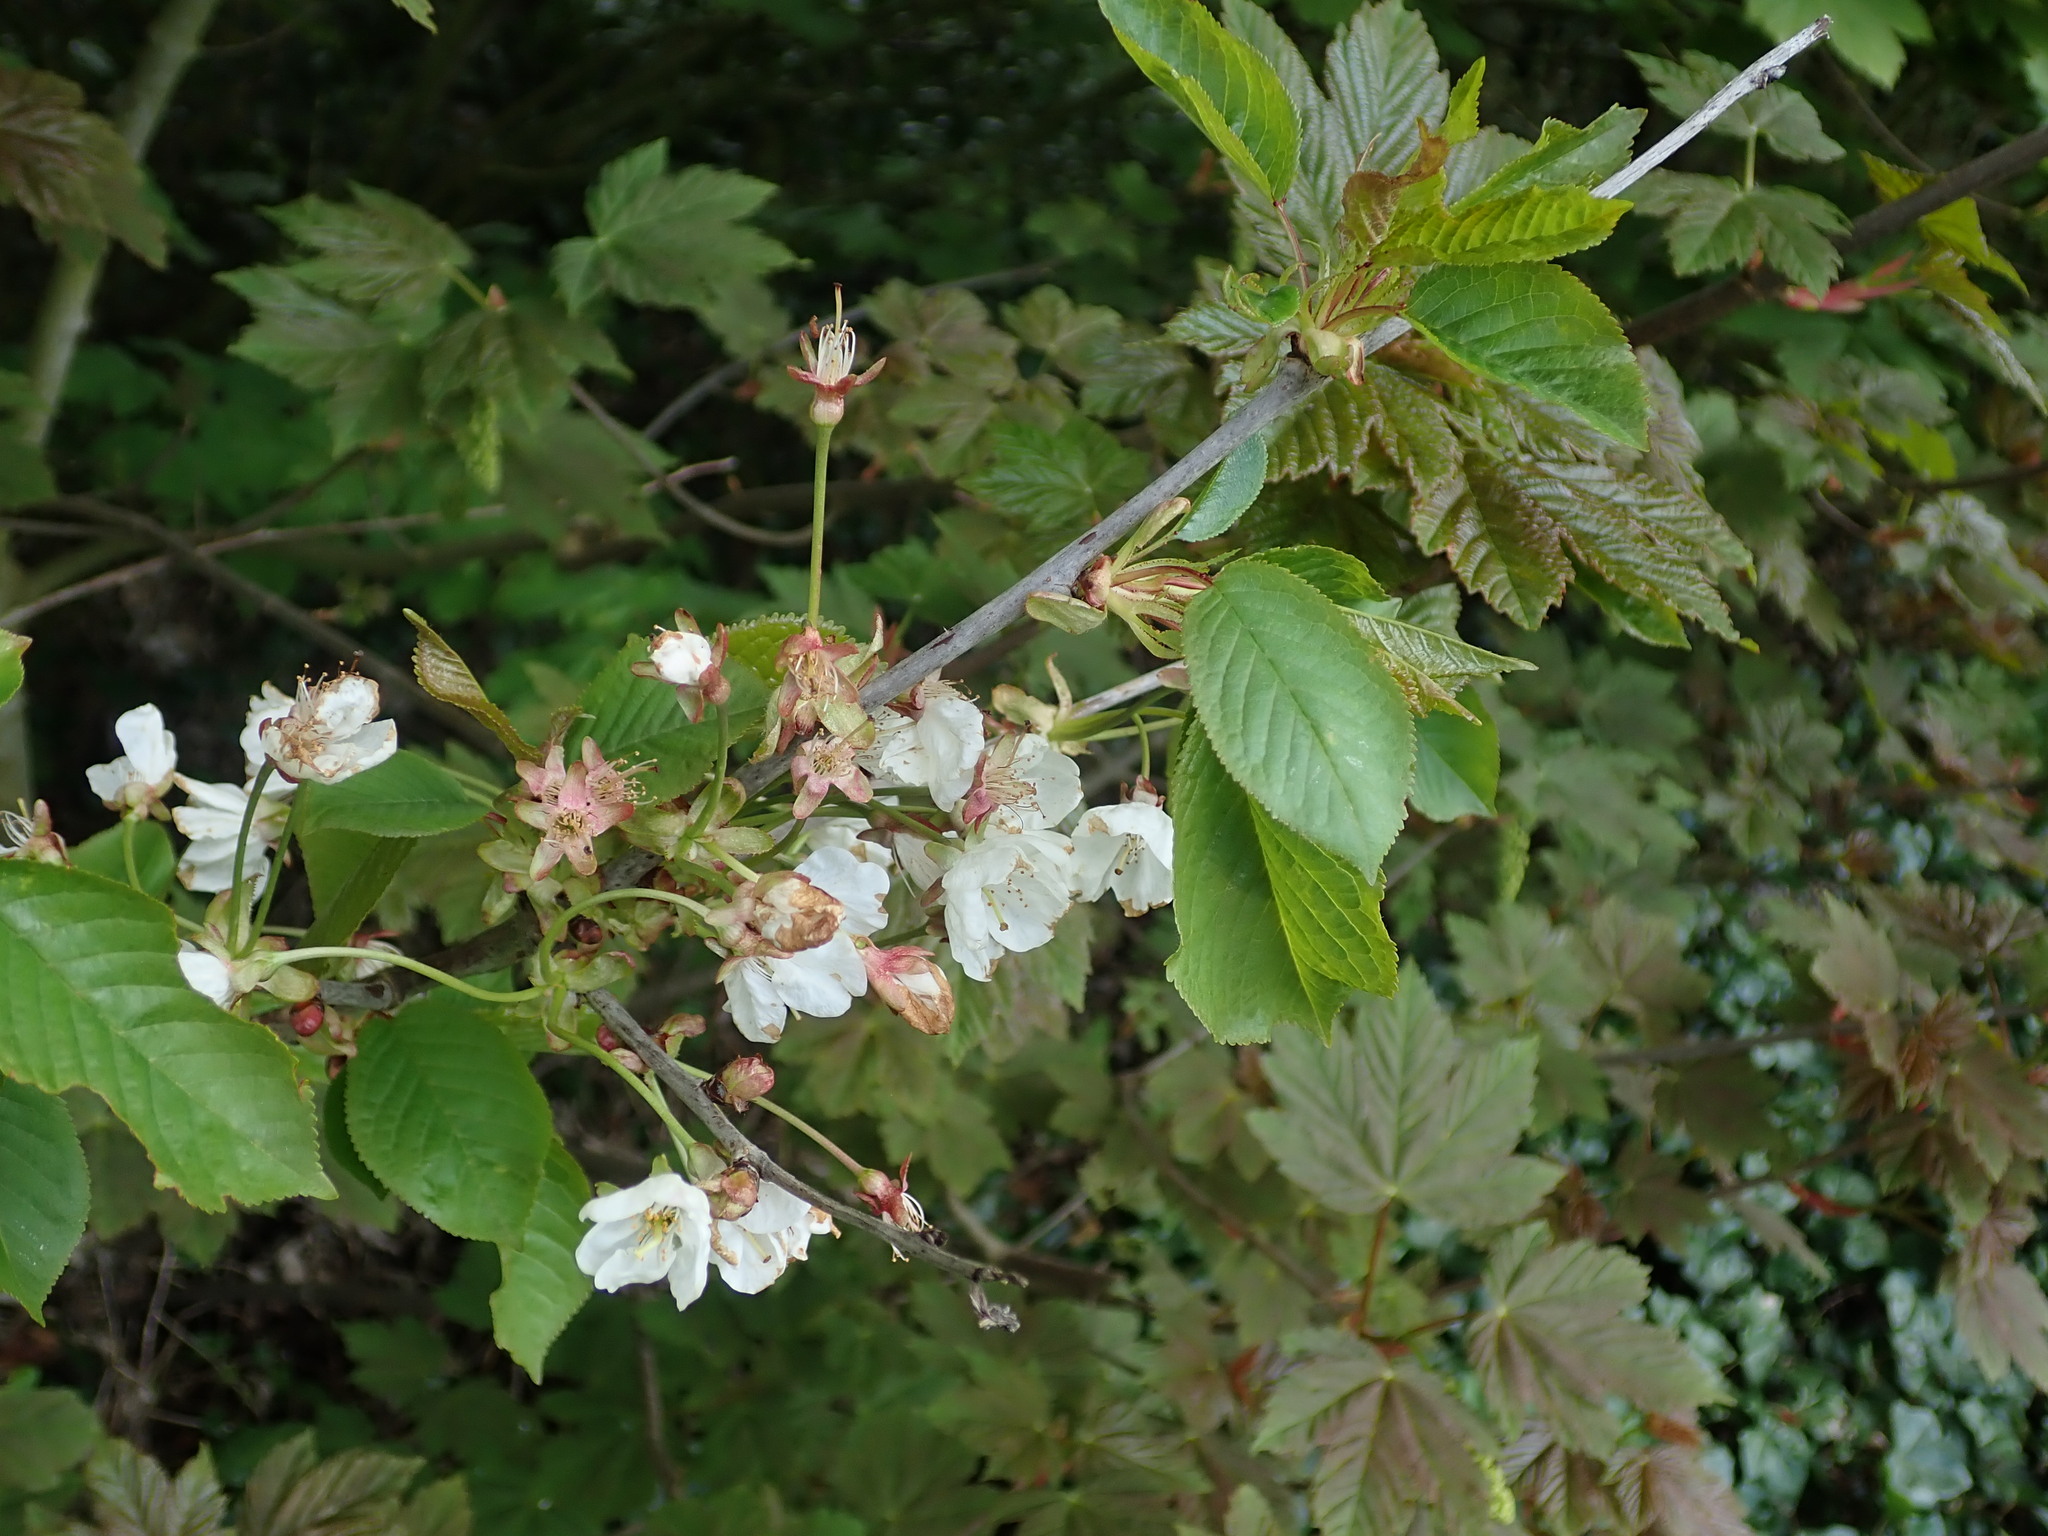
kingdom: Plantae
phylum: Tracheophyta
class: Magnoliopsida
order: Rosales
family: Rosaceae
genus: Prunus
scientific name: Prunus avium
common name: Sweet cherry
